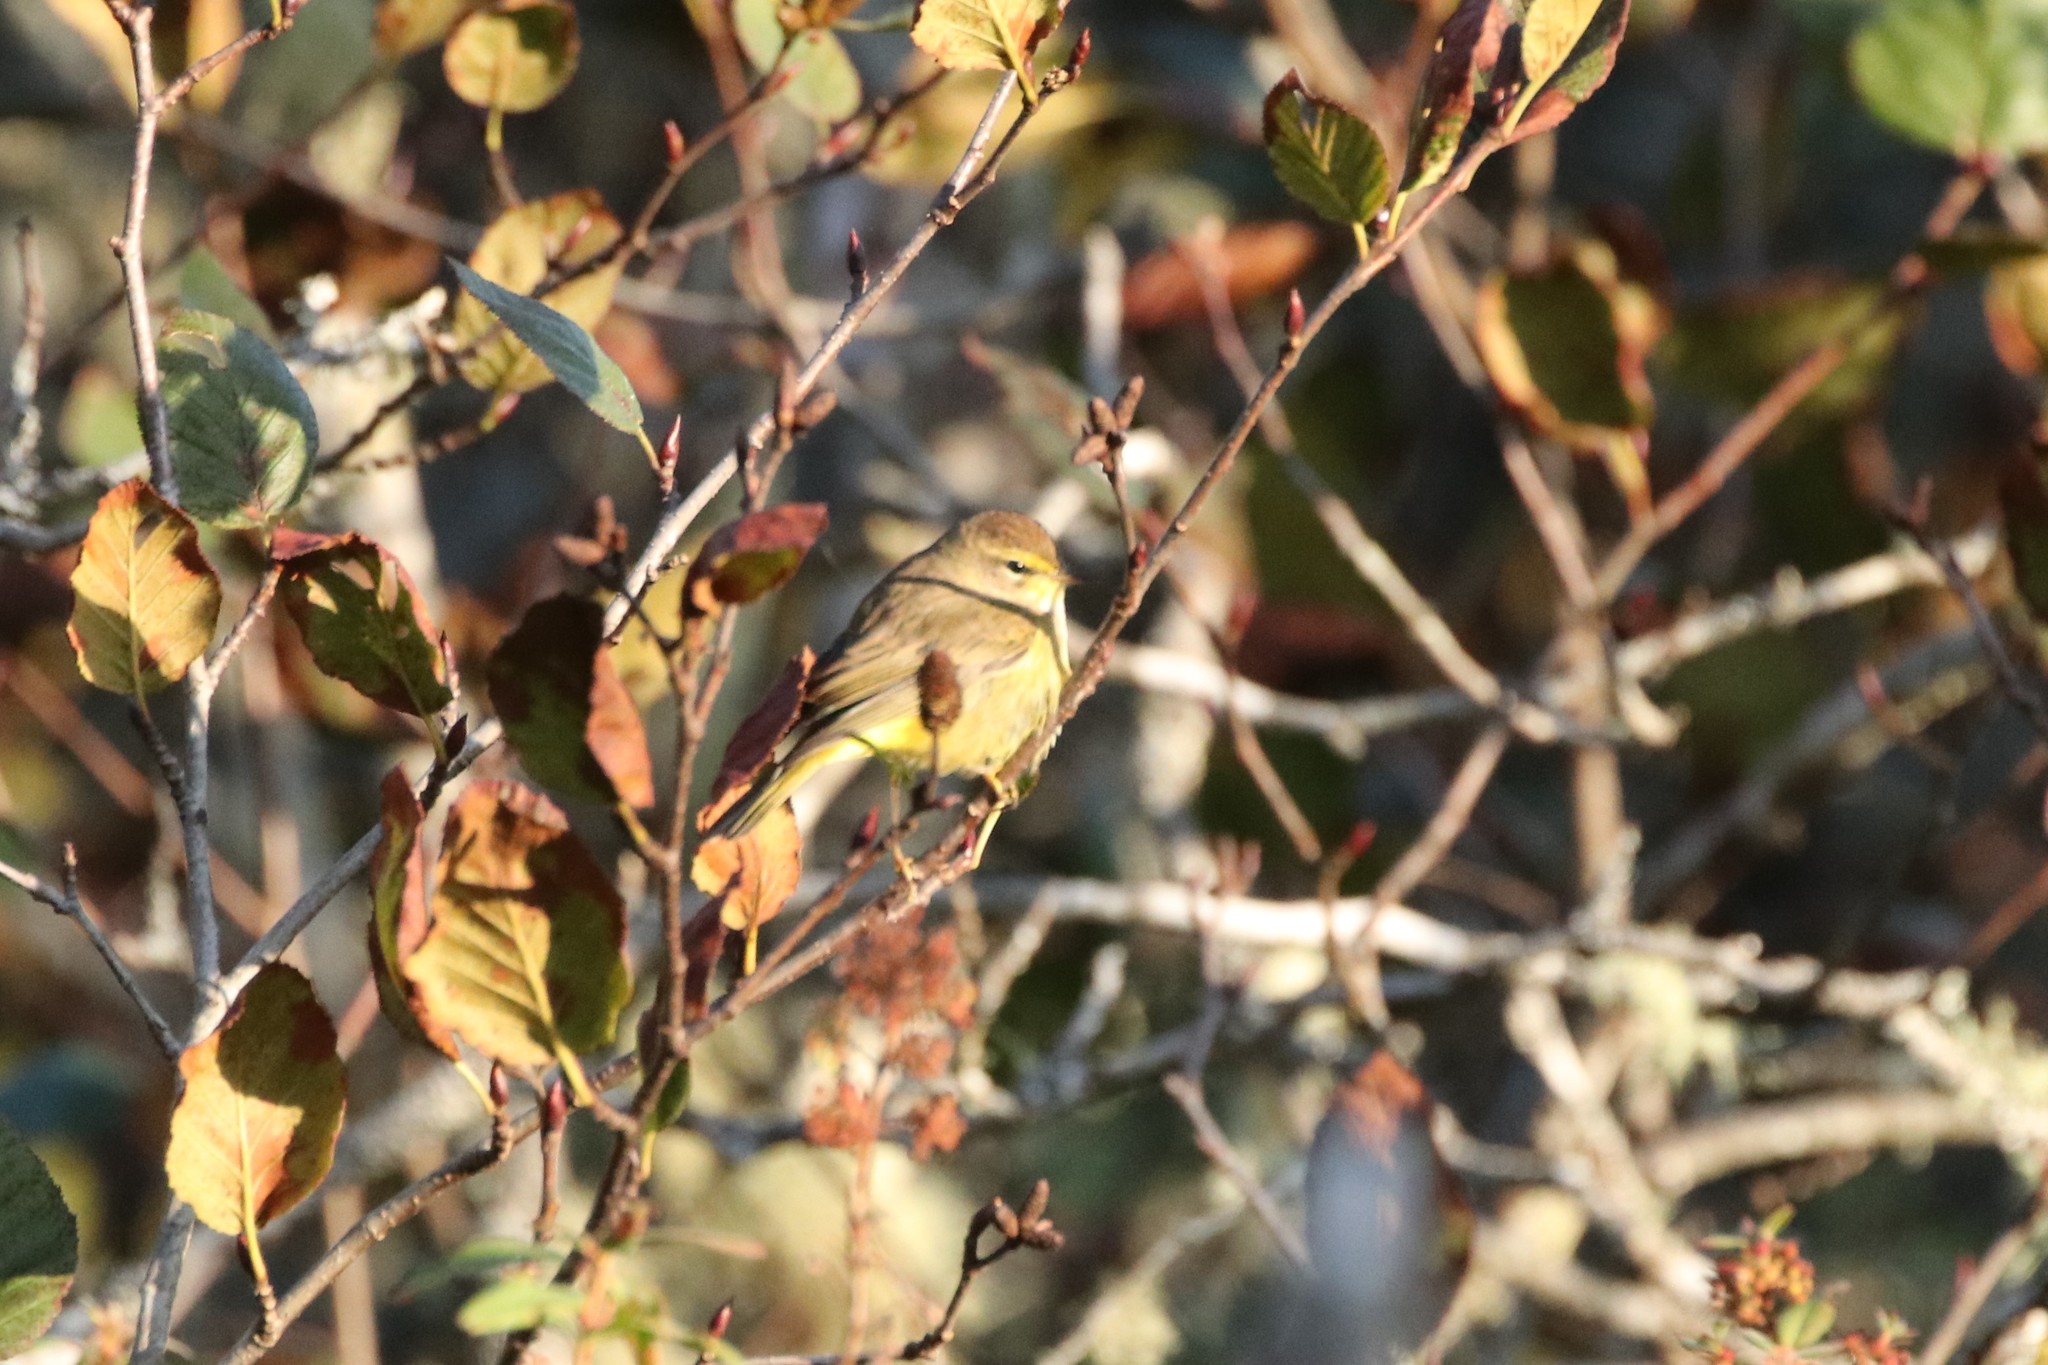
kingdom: Animalia
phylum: Chordata
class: Aves
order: Passeriformes
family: Parulidae
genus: Setophaga
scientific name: Setophaga palmarum
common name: Palm warbler
